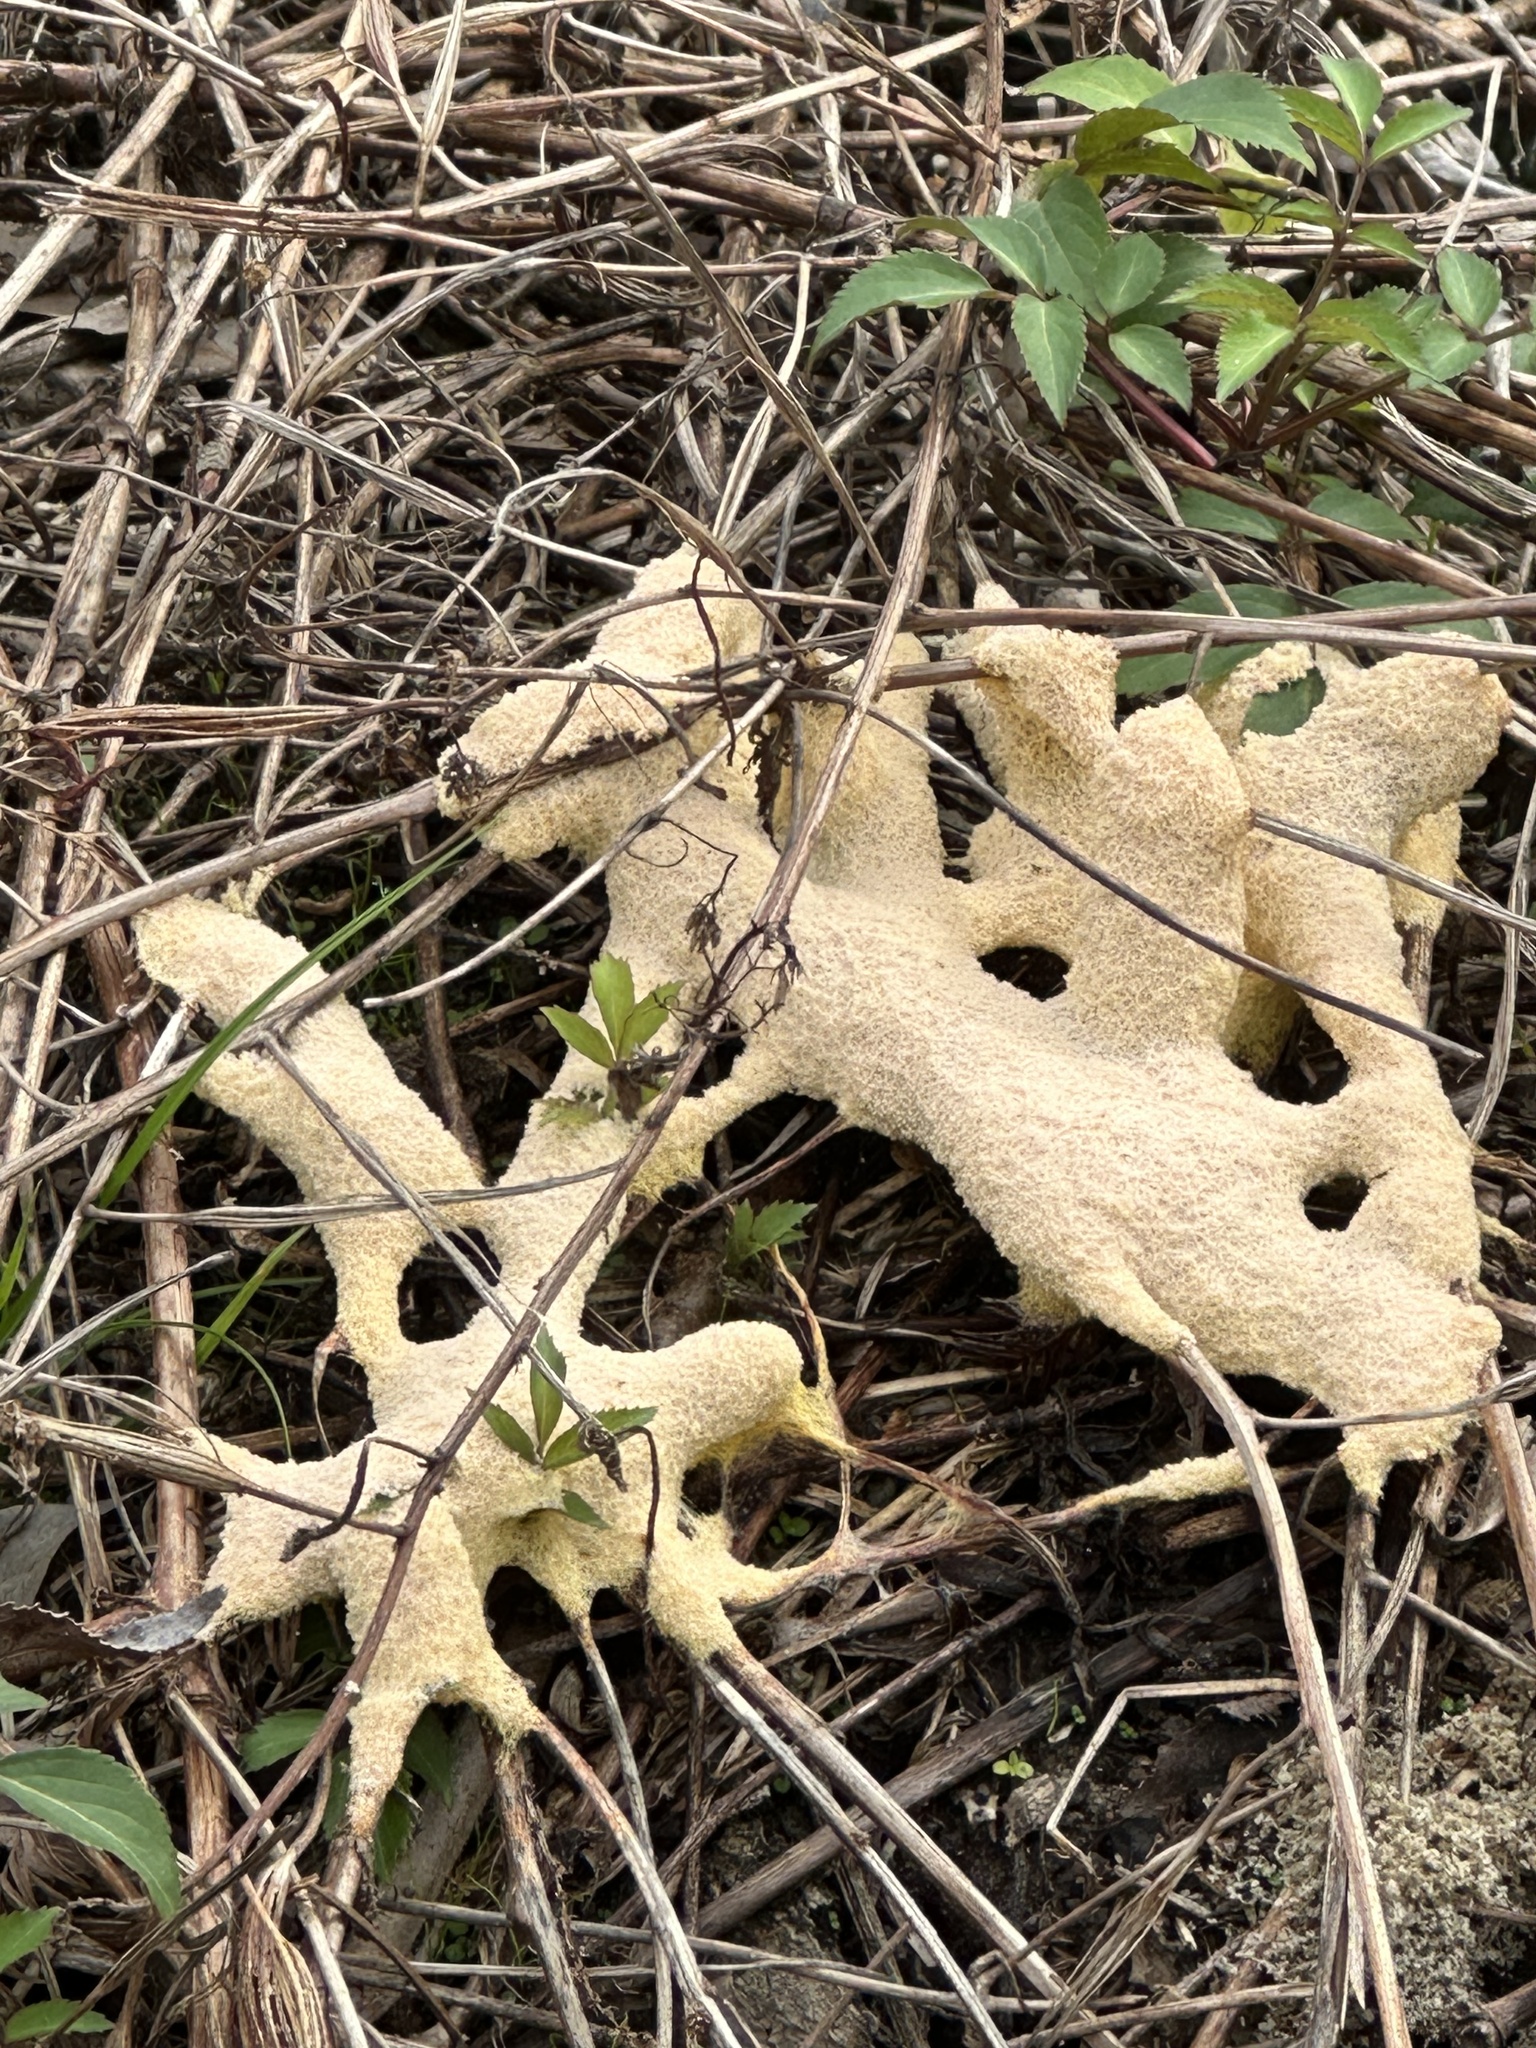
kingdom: Protozoa
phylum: Mycetozoa
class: Myxomycetes
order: Physarales
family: Physaraceae
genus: Fuligo
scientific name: Fuligo septica
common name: Dog vomit slime mold
